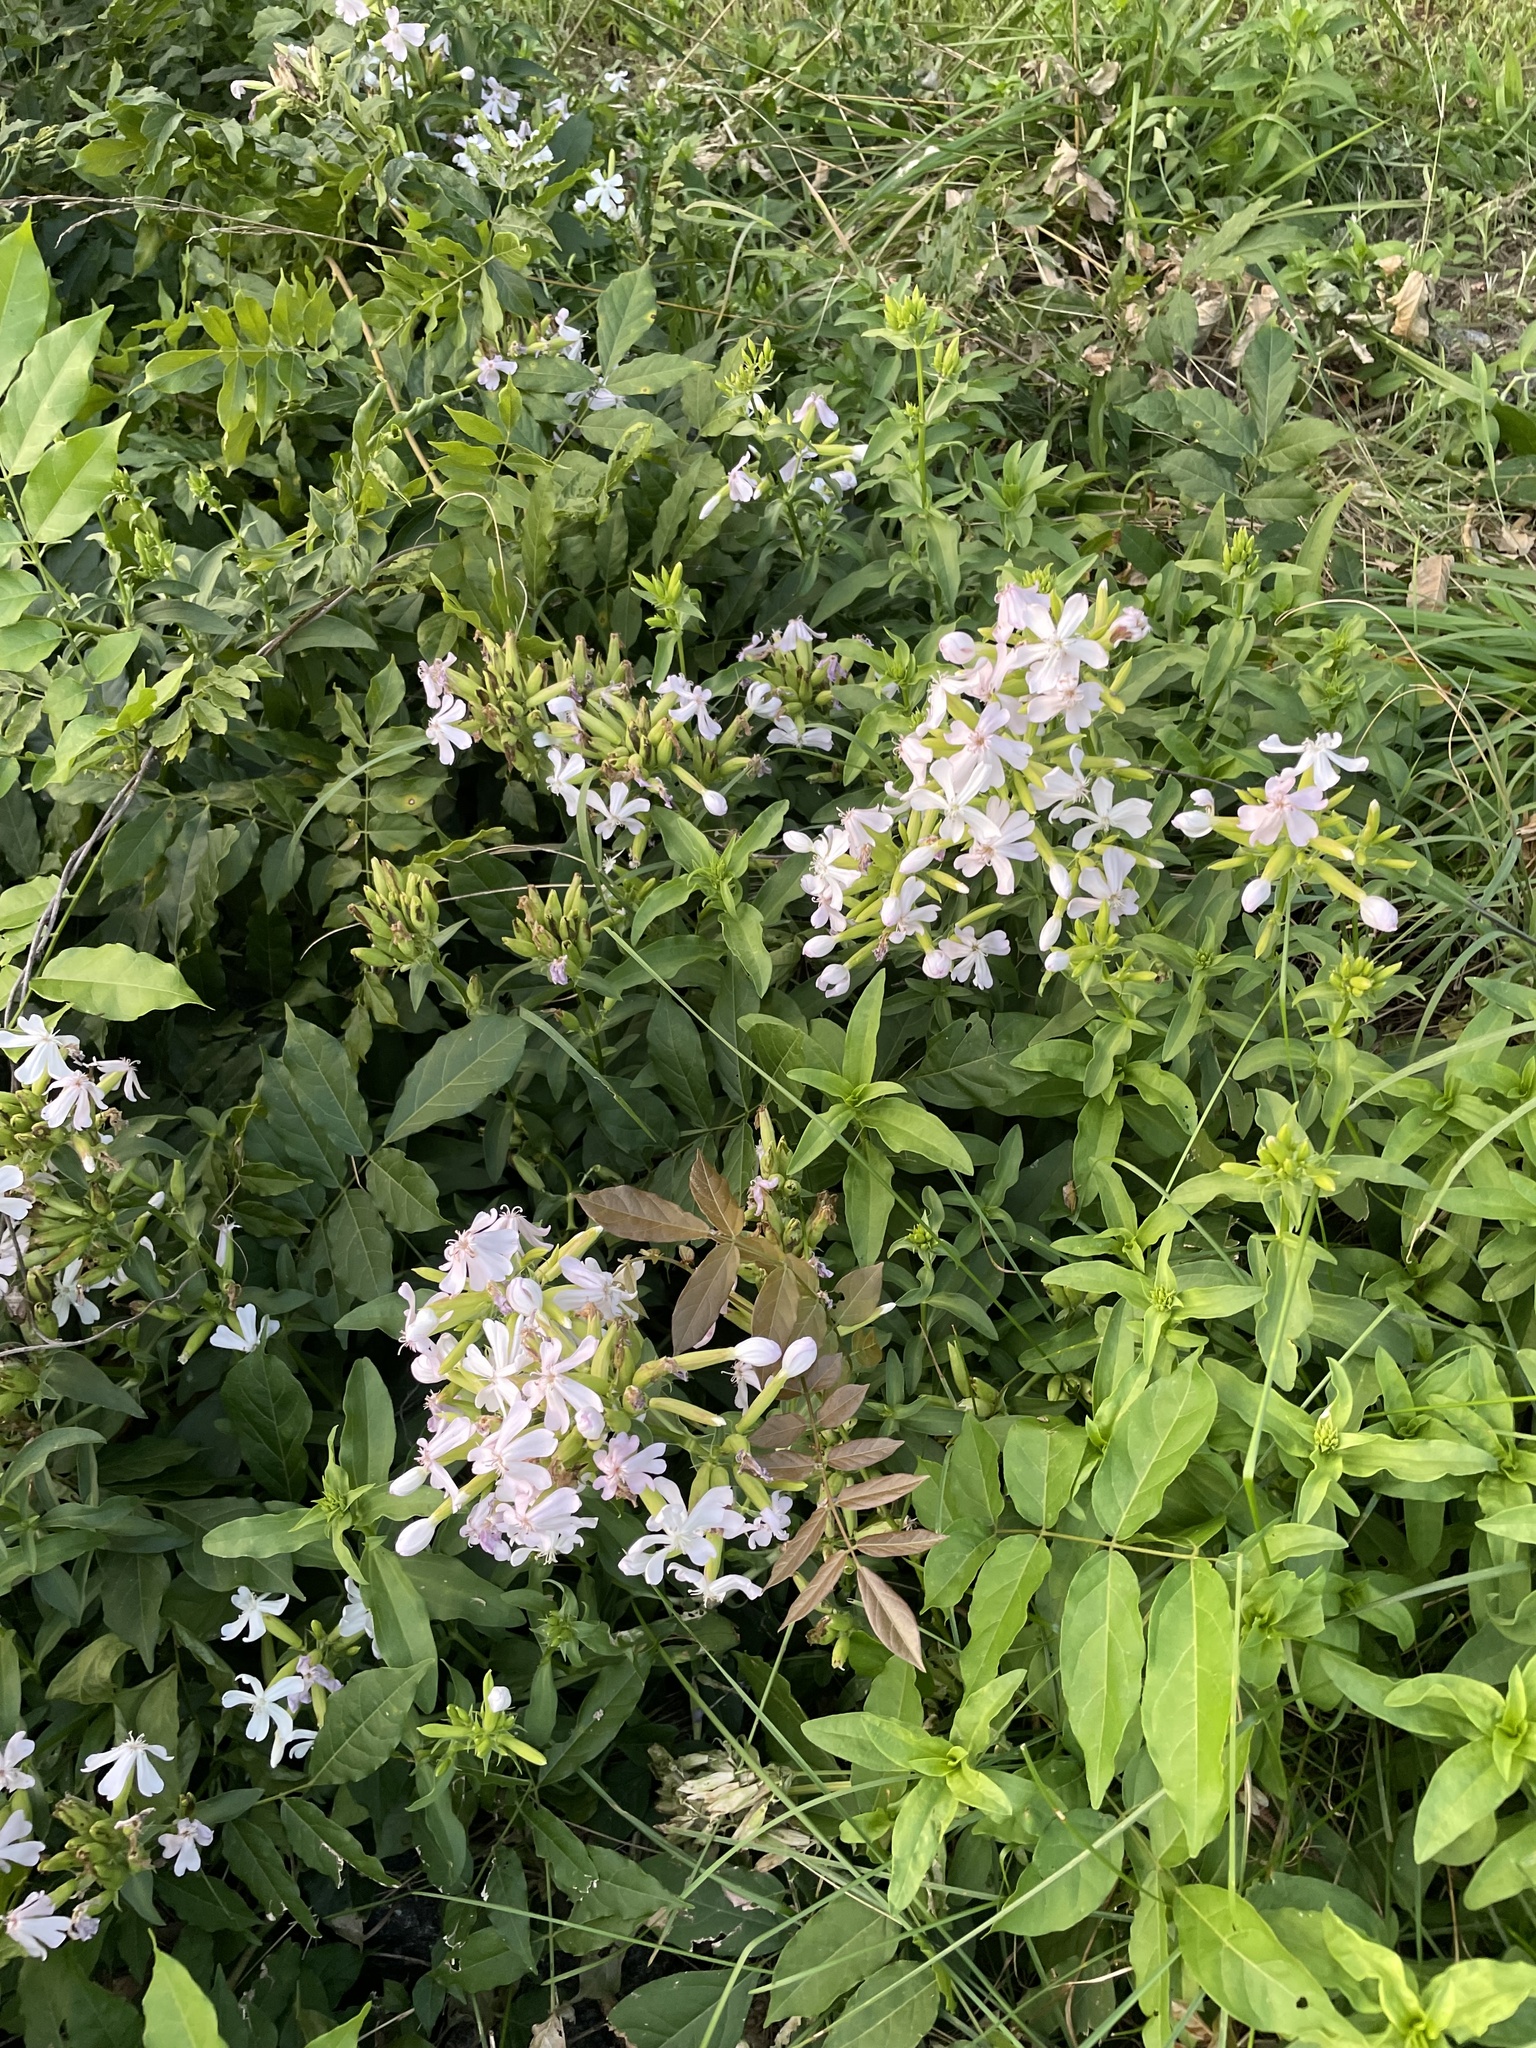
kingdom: Plantae
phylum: Tracheophyta
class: Magnoliopsida
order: Caryophyllales
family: Caryophyllaceae
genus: Saponaria
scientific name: Saponaria officinalis
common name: Soapwort
